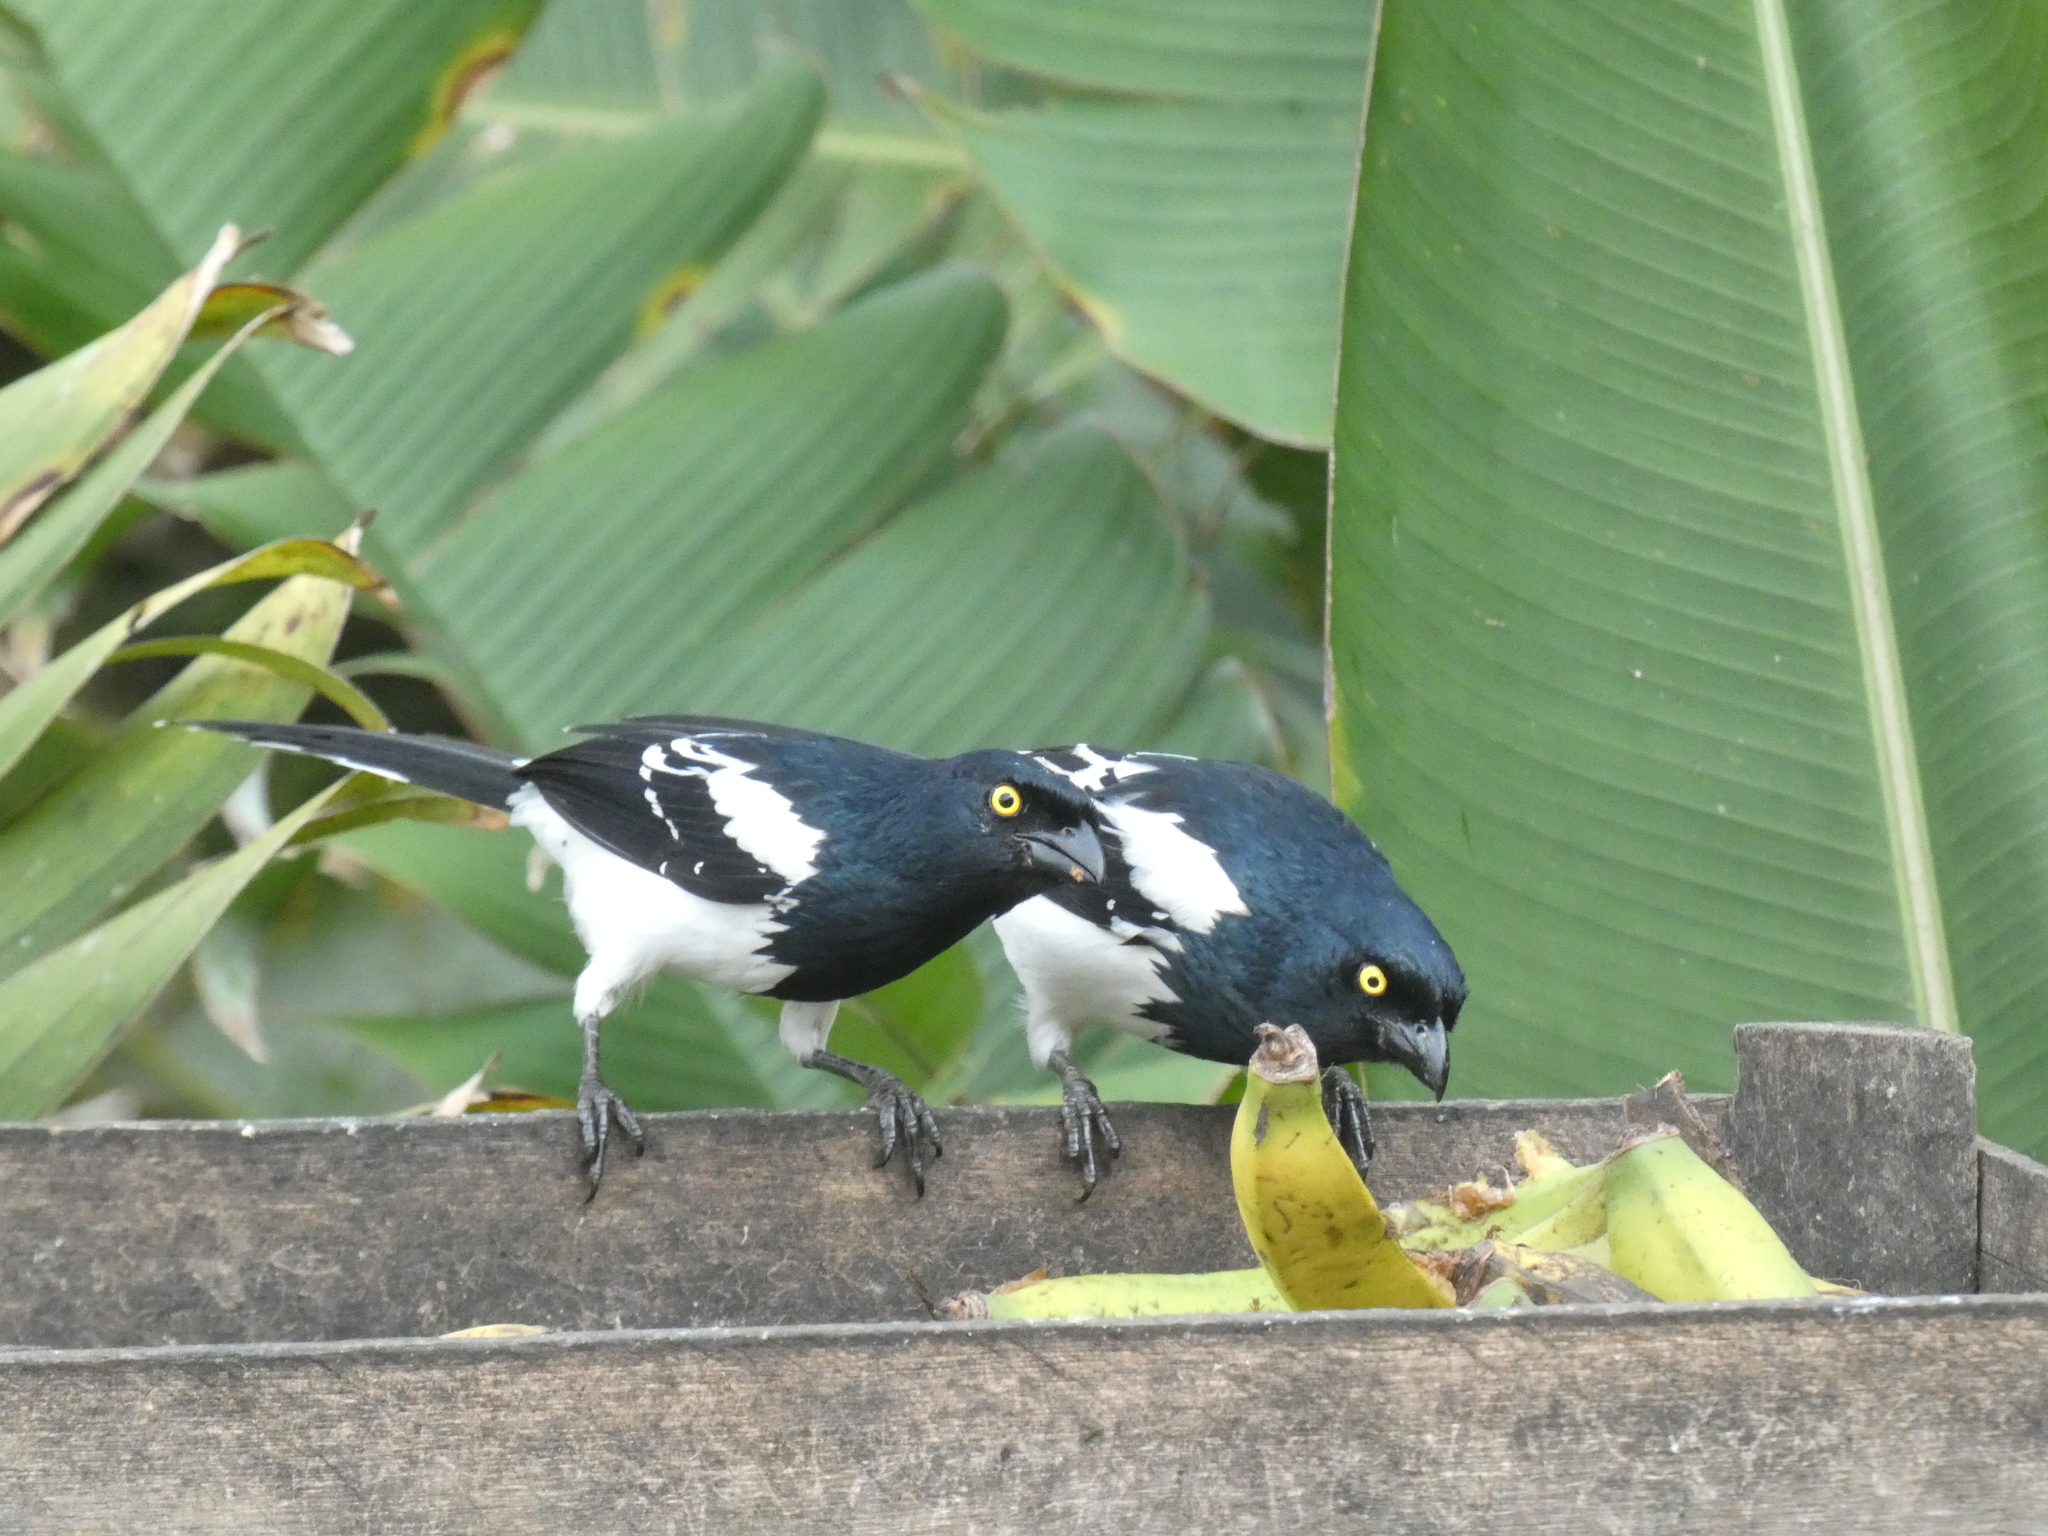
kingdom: Animalia
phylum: Chordata
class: Aves
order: Passeriformes
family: Thraupidae
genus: Cissopis
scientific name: Cissopis leverianus
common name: Magpie tanager
